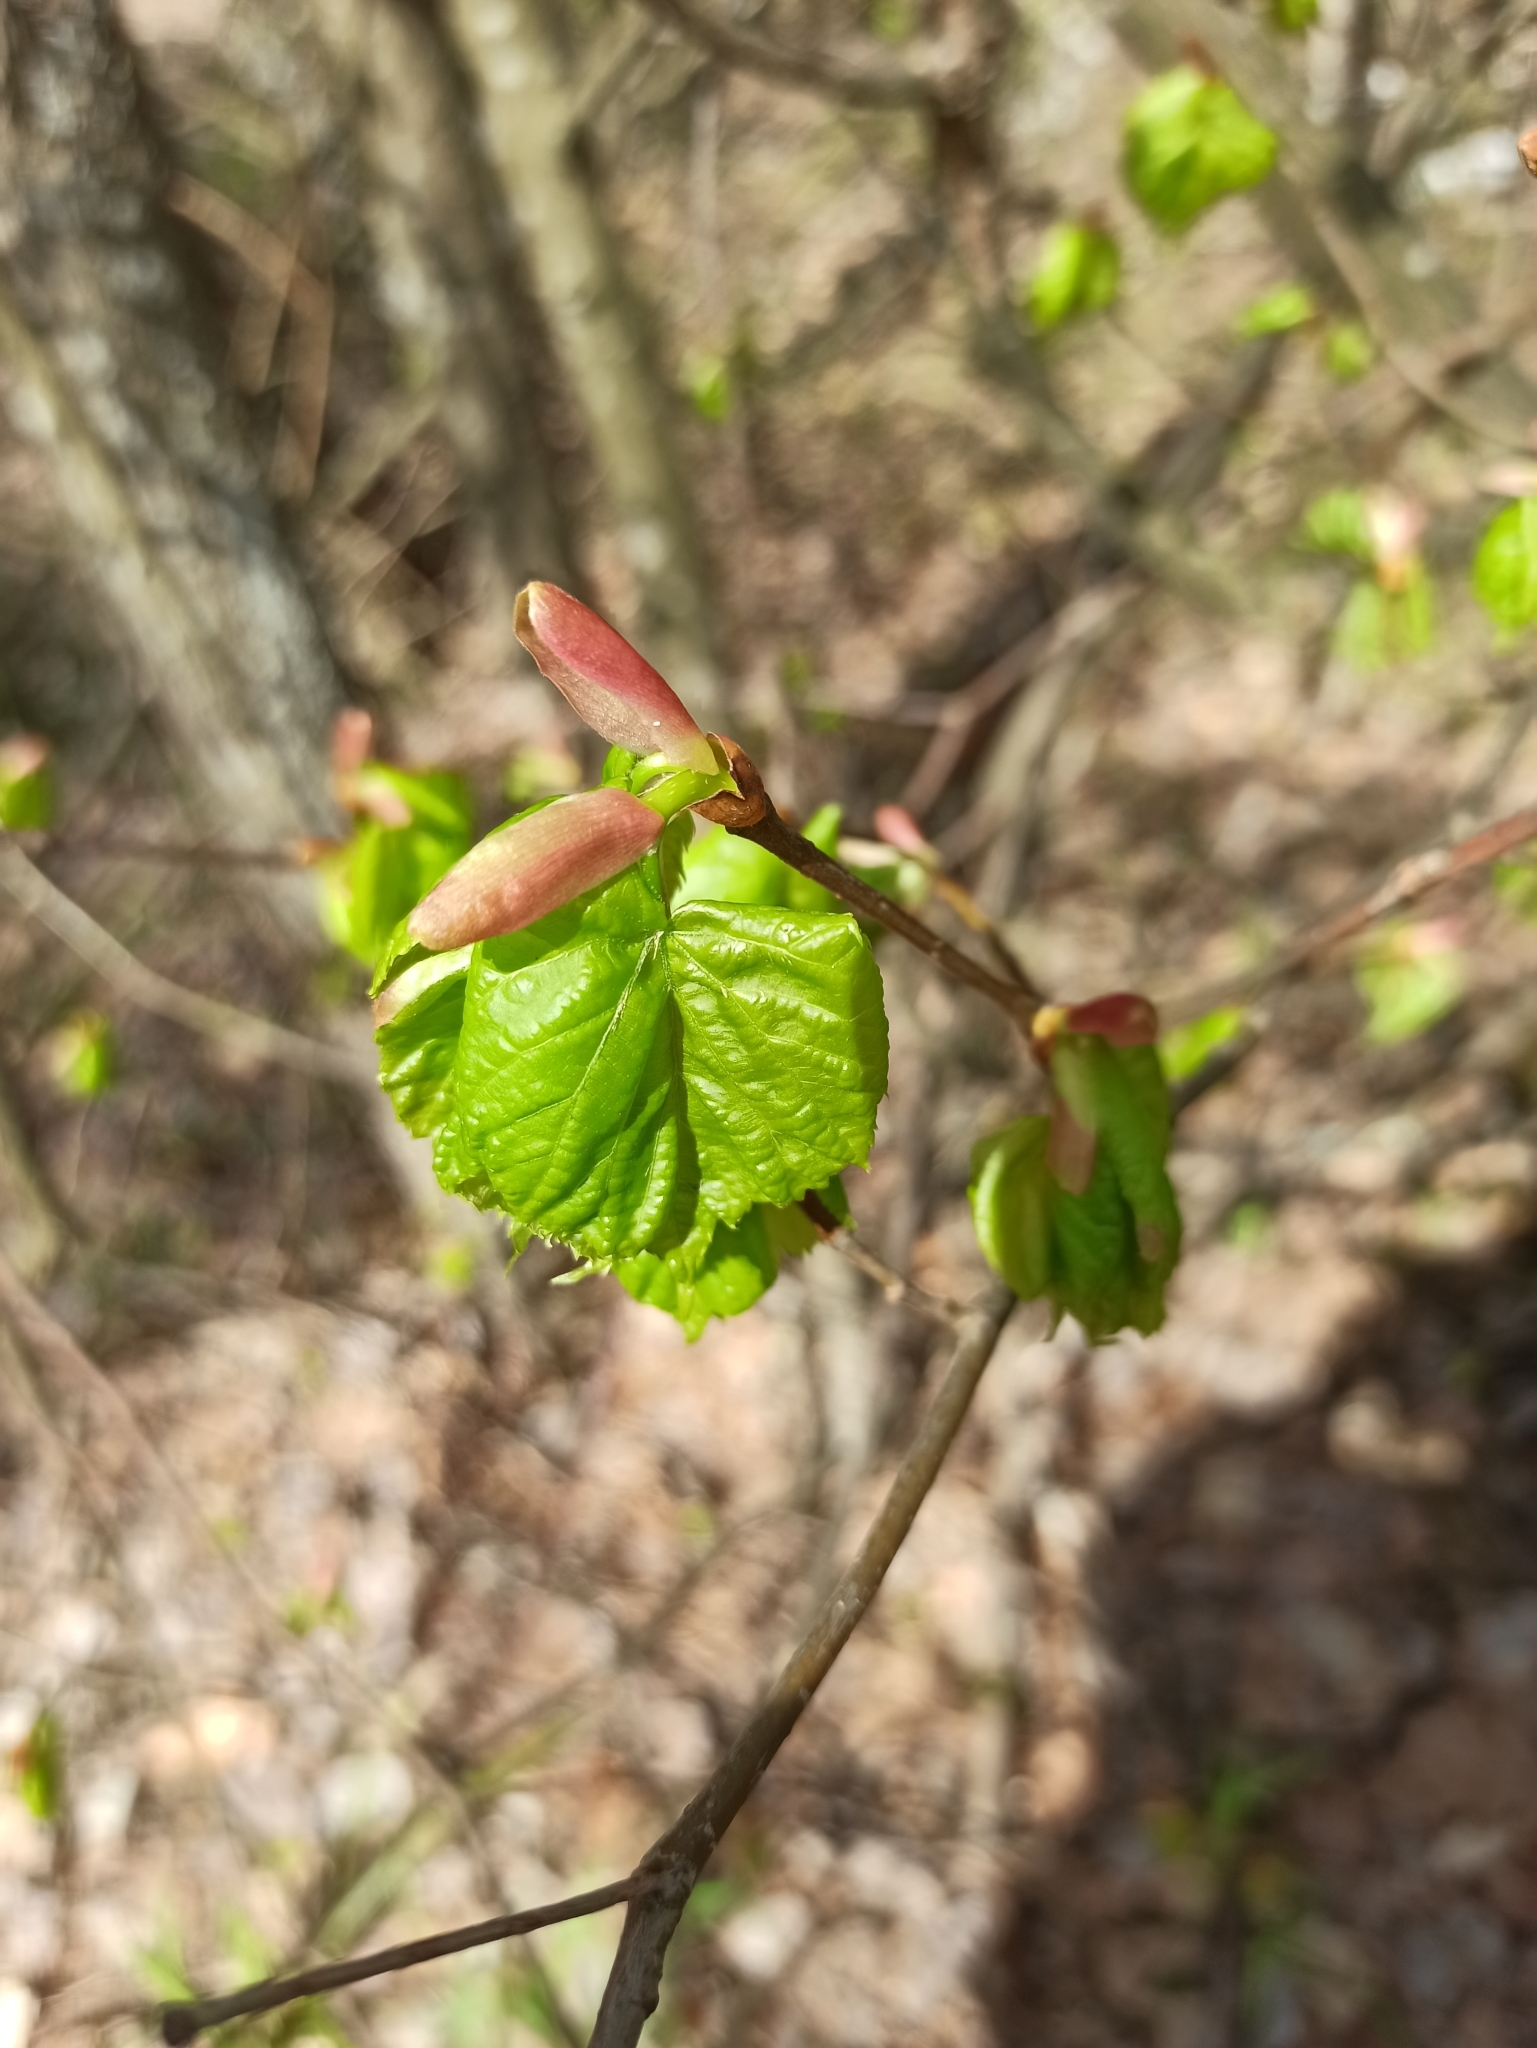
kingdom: Plantae
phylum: Tracheophyta
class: Magnoliopsida
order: Malvales
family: Malvaceae
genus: Tilia
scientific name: Tilia cordata
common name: Small-leaved lime
